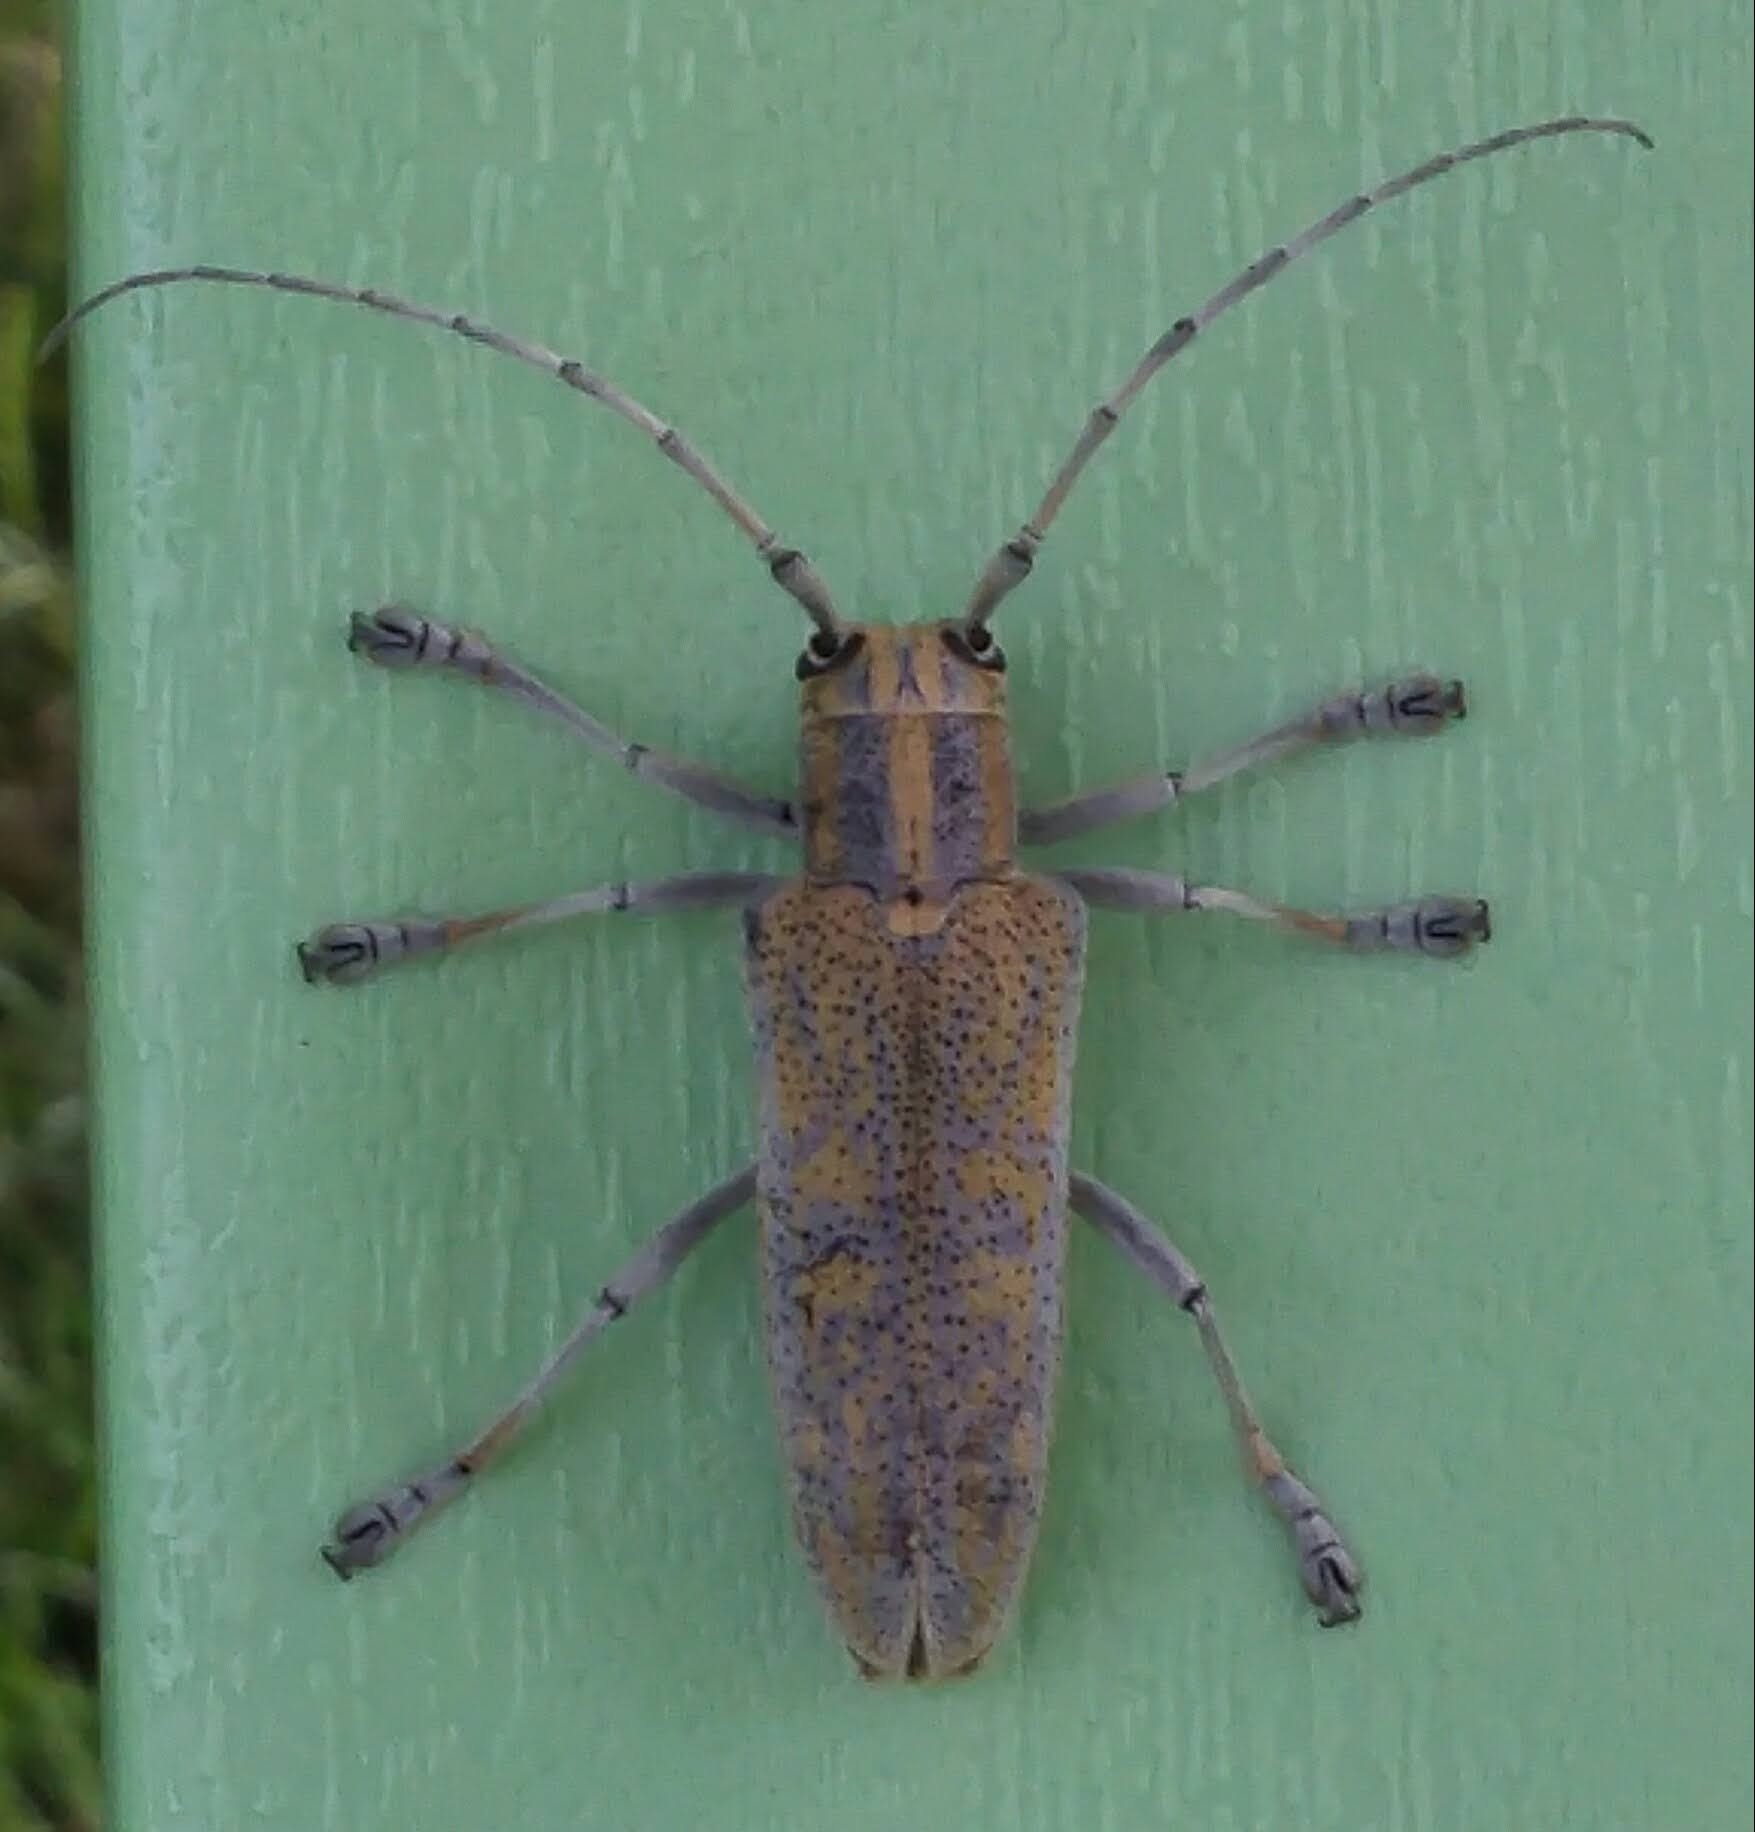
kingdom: Animalia
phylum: Arthropoda
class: Insecta
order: Coleoptera
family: Cerambycidae
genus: Saperda
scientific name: Saperda calcarata
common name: Poplar borer
